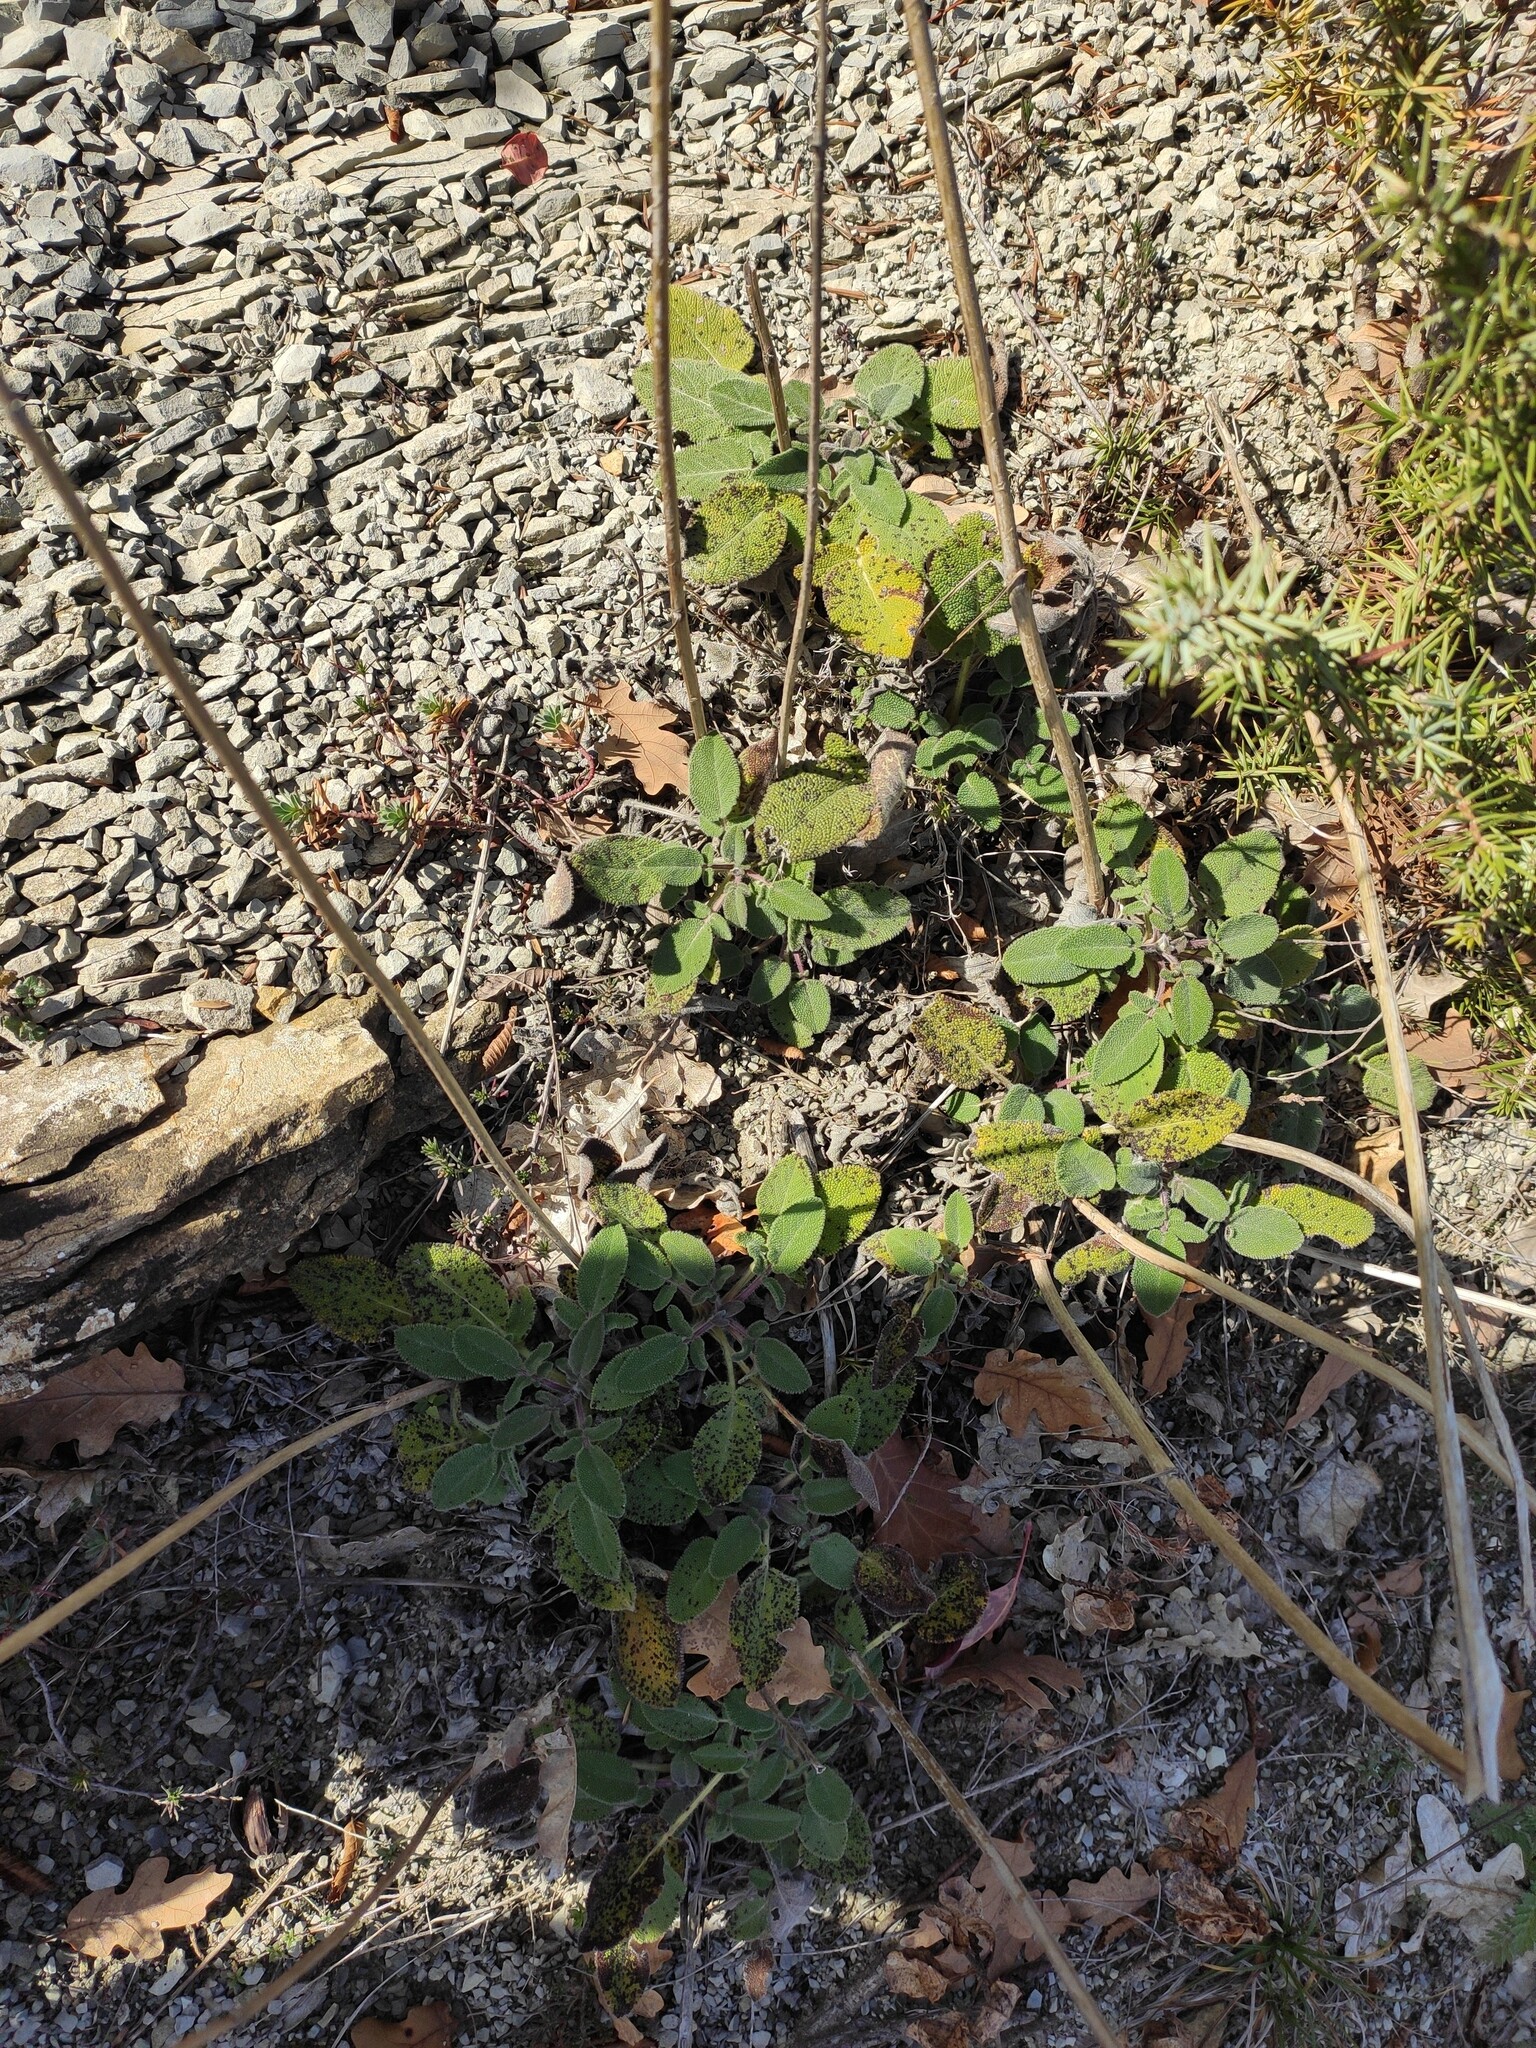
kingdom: Plantae
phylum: Tracheophyta
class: Magnoliopsida
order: Lamiales
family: Lamiaceae
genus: Salvia
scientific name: Salvia ringens
